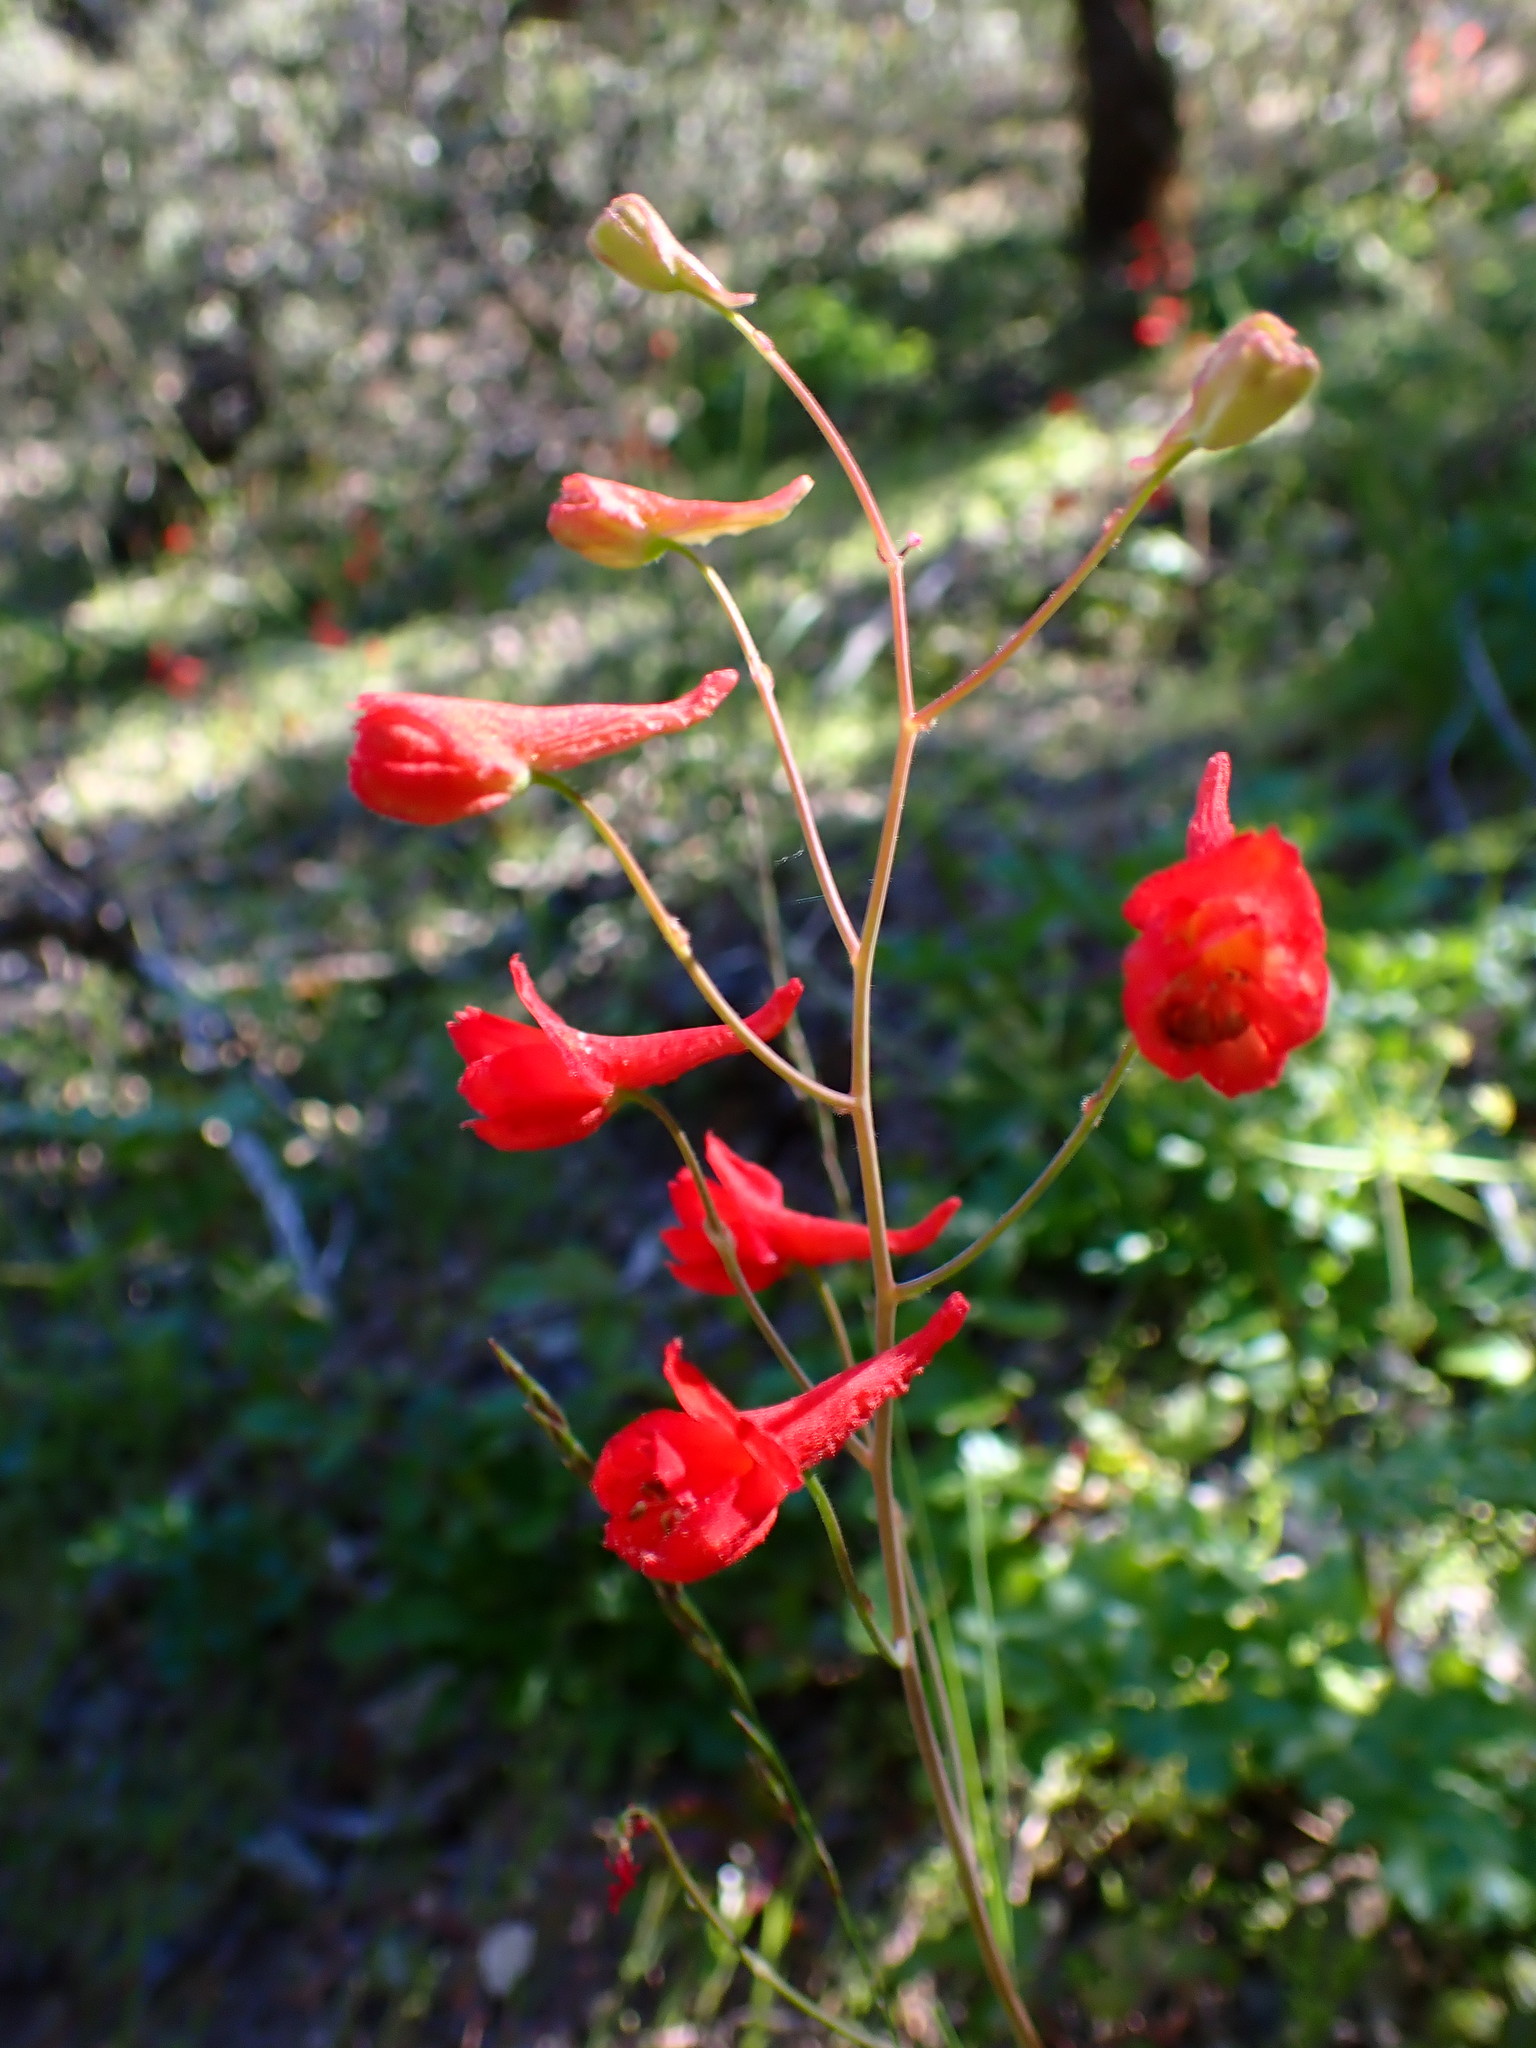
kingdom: Plantae
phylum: Tracheophyta
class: Magnoliopsida
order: Ranunculales
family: Ranunculaceae
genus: Delphinium
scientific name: Delphinium nudicaule
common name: Red larkspur
